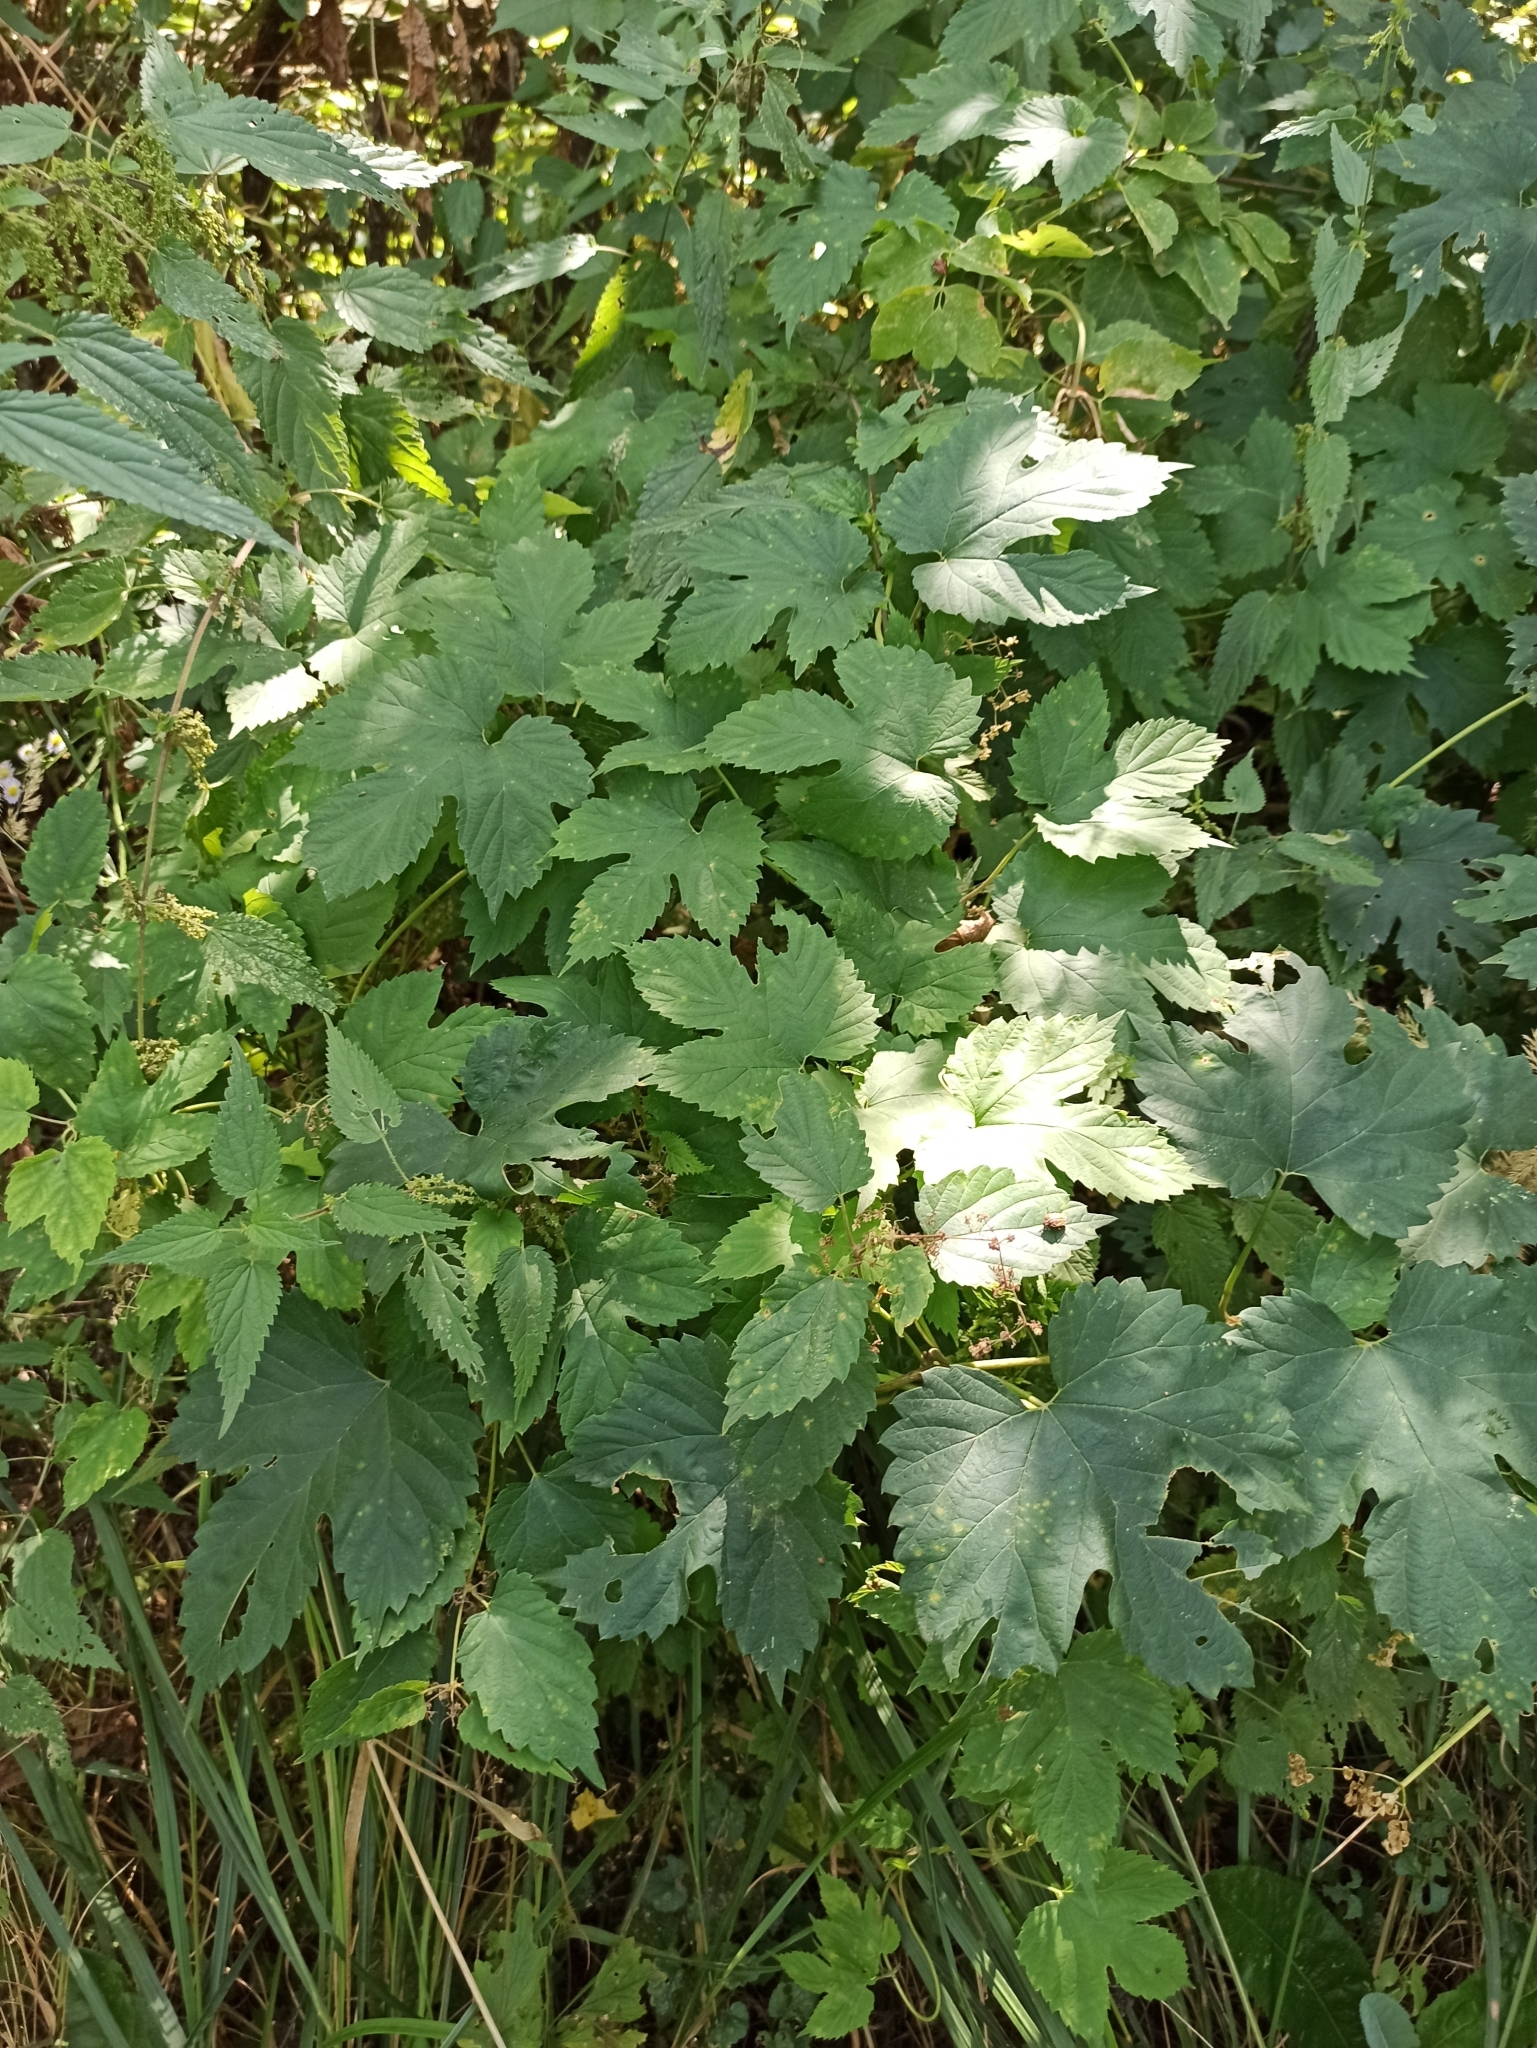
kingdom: Plantae
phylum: Tracheophyta
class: Magnoliopsida
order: Rosales
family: Cannabaceae
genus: Humulus
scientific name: Humulus lupulus
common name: Hop
